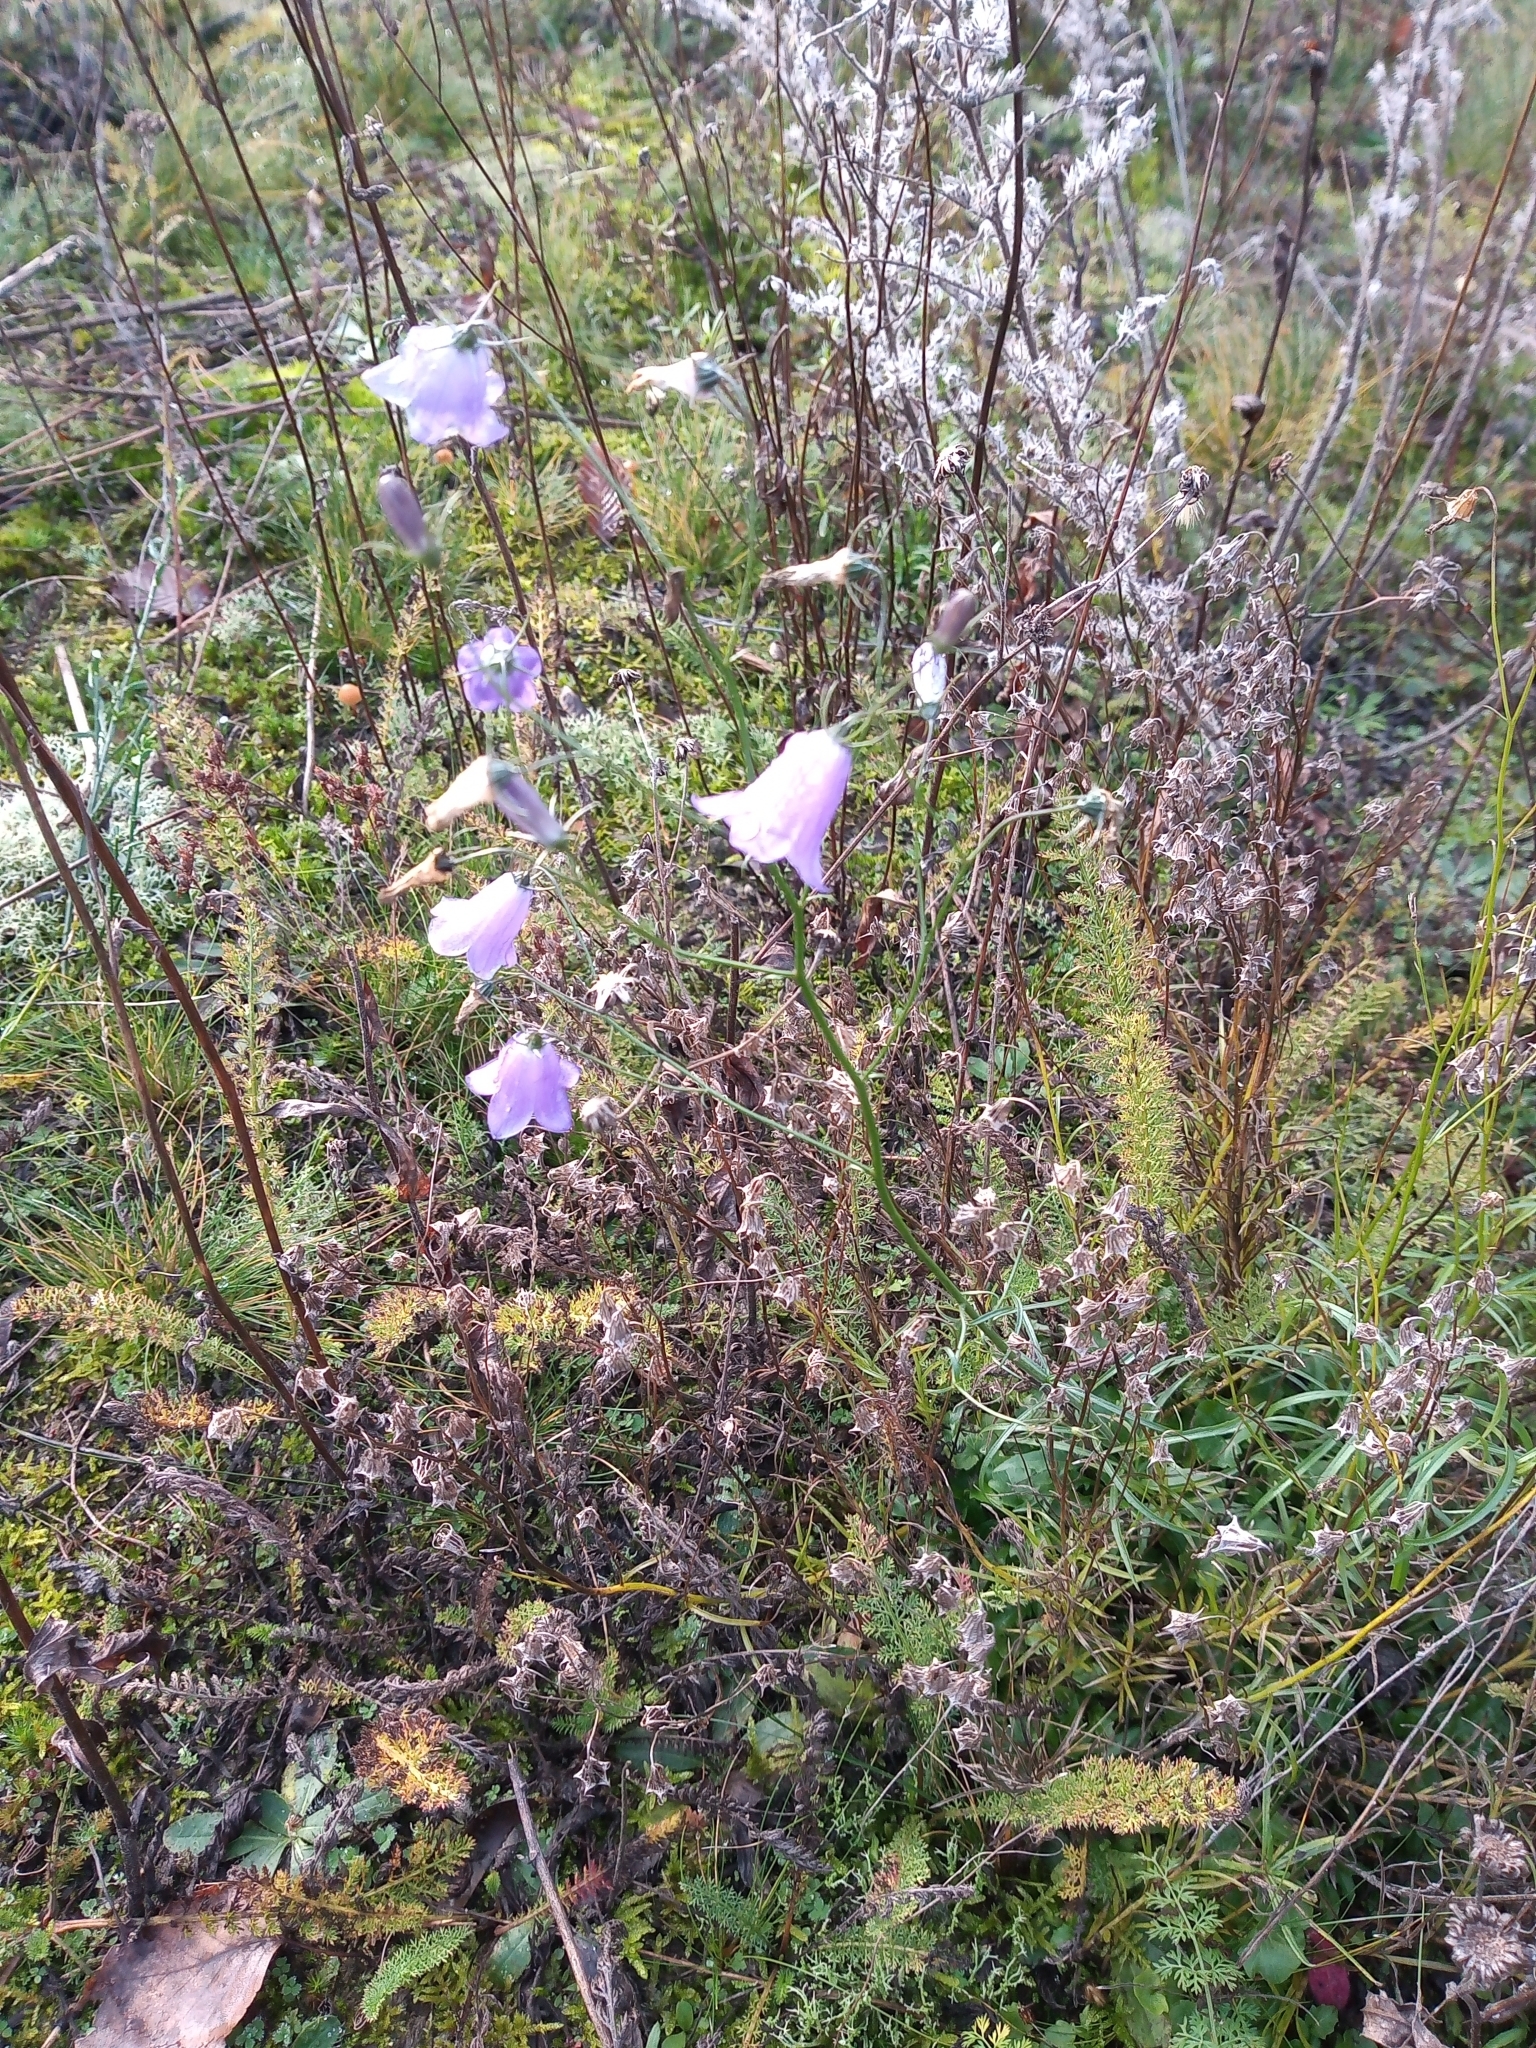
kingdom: Plantae
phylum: Tracheophyta
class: Magnoliopsida
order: Asterales
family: Campanulaceae
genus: Campanula
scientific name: Campanula rotundifolia
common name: Harebell
